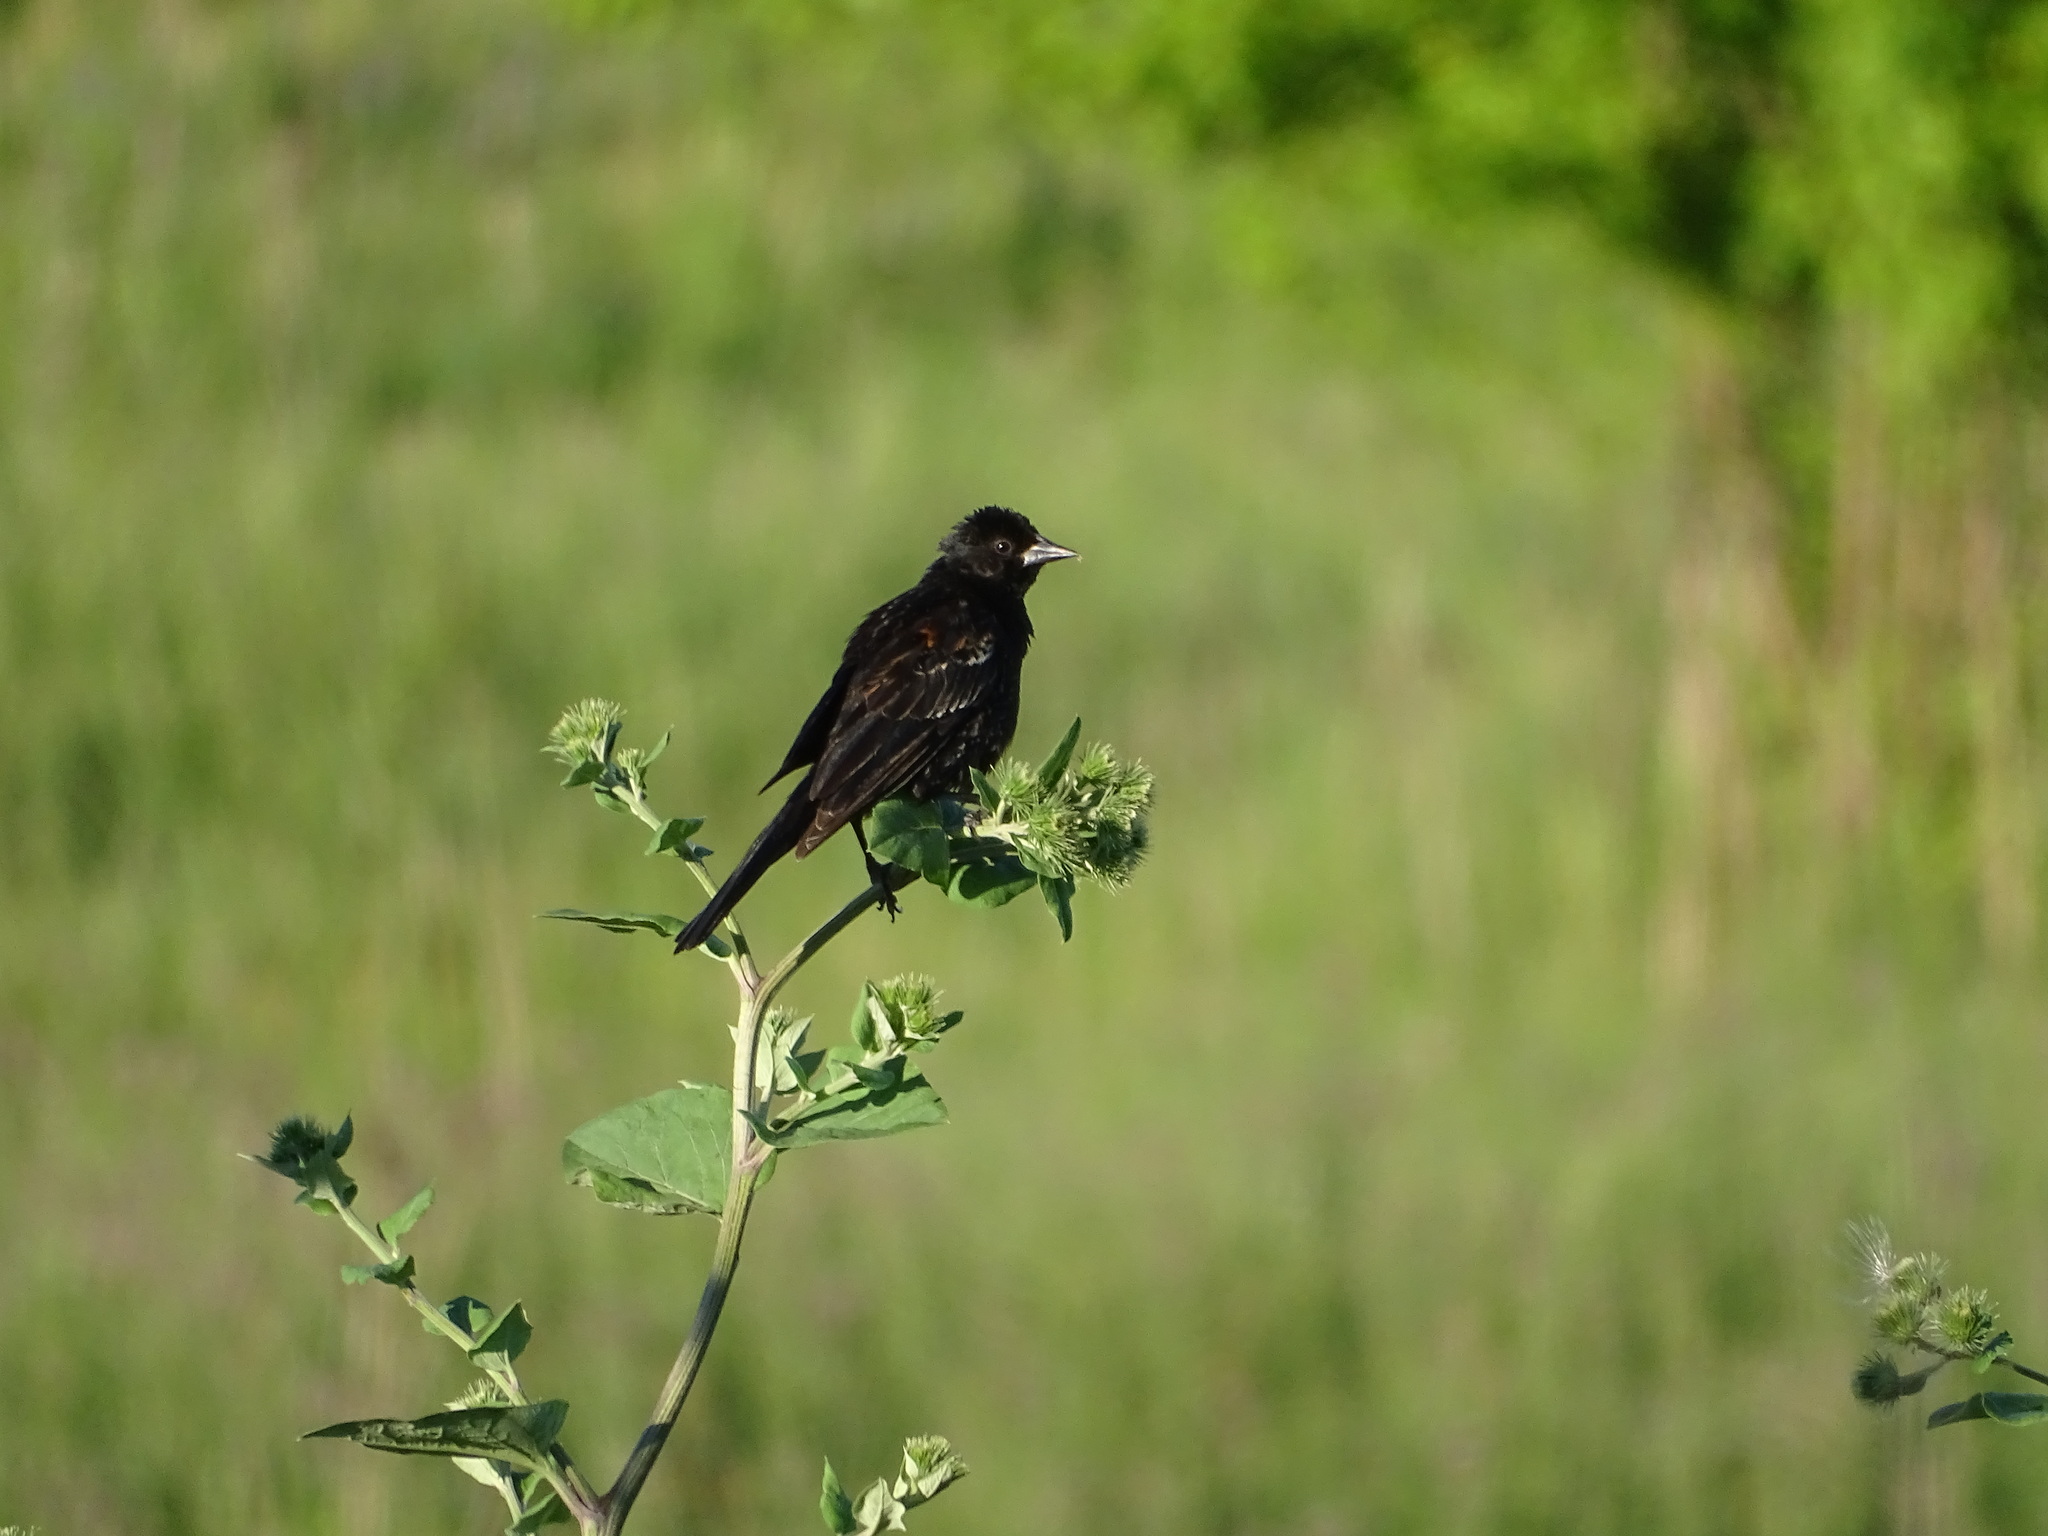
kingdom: Animalia
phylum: Chordata
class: Aves
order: Passeriformes
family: Icteridae
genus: Agelaius
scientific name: Agelaius phoeniceus
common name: Red-winged blackbird
